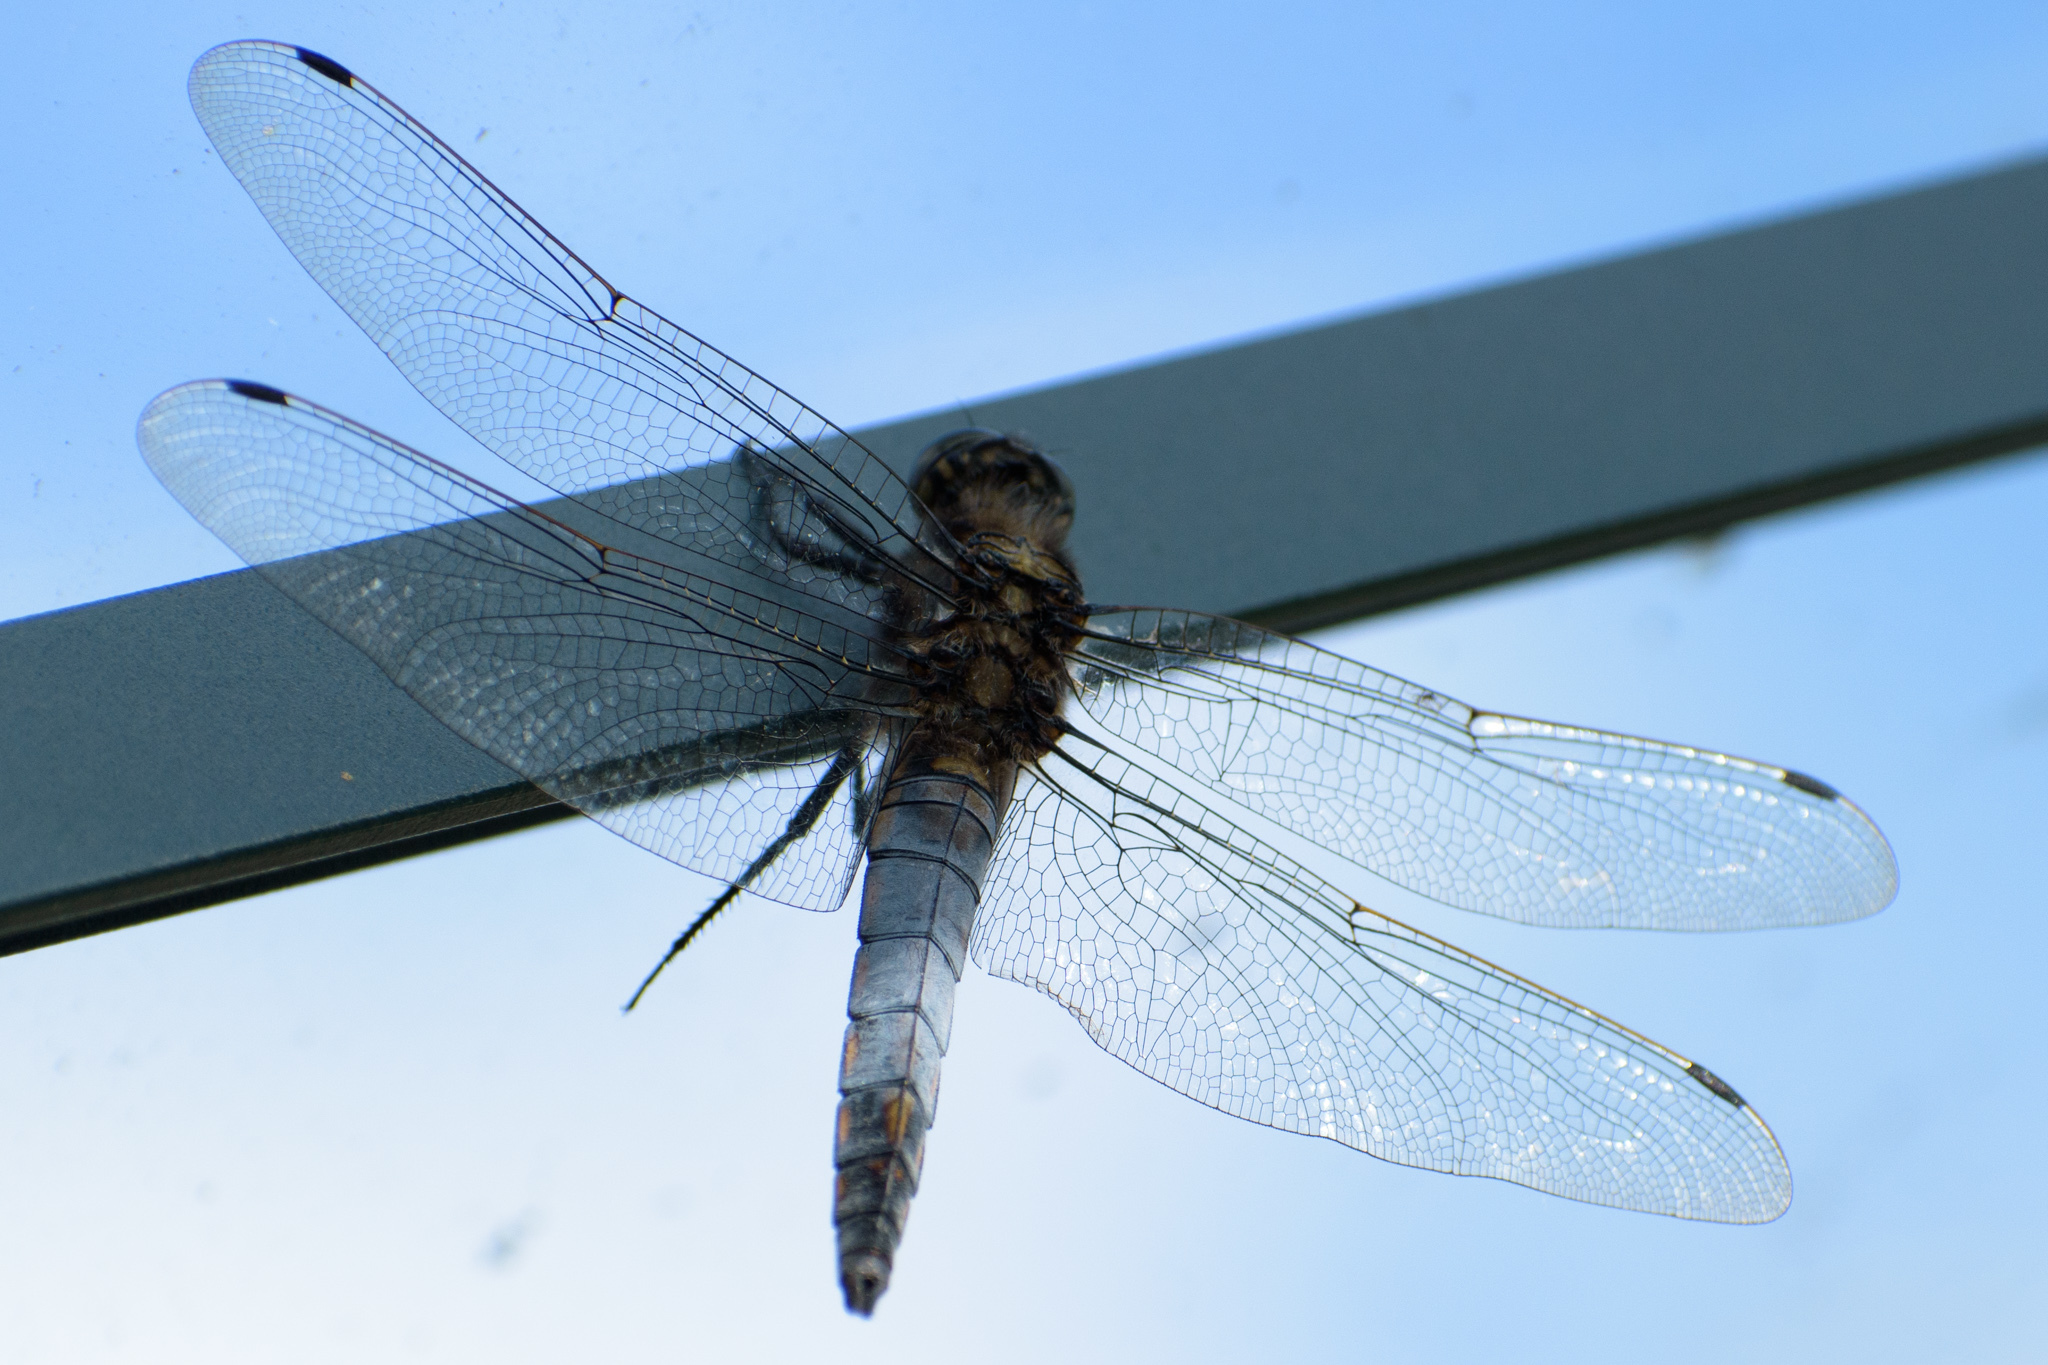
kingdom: Animalia
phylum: Arthropoda
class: Insecta
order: Odonata
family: Libellulidae
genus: Orthetrum
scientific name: Orthetrum cancellatum
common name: Black-tailed skimmer
